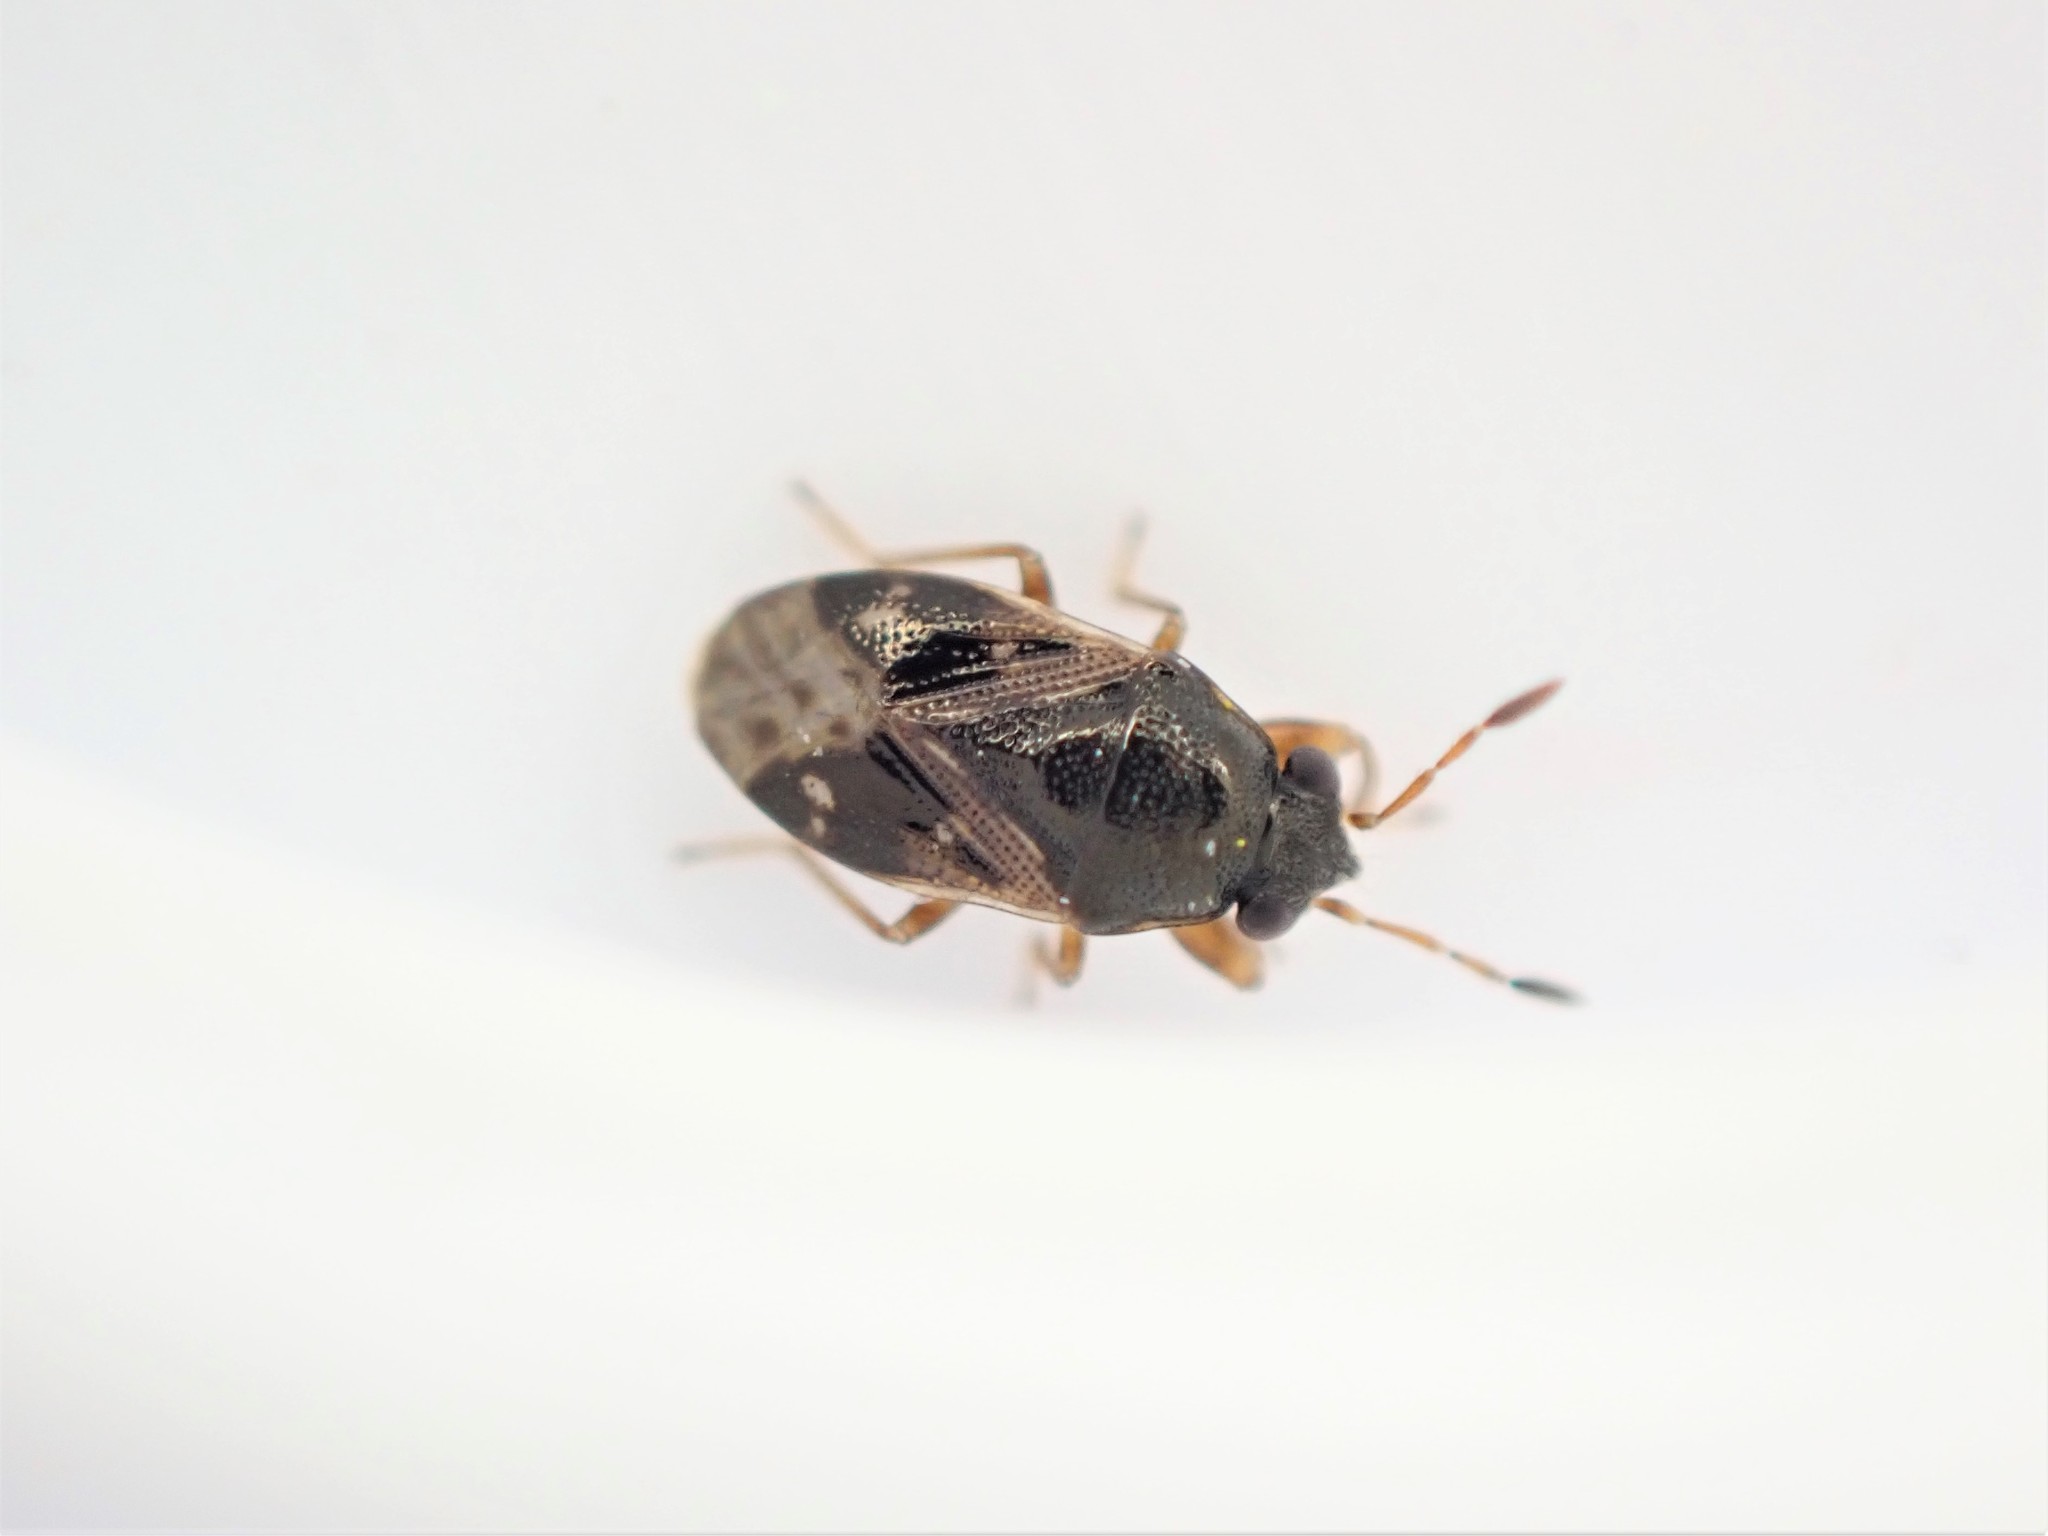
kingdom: Animalia
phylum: Arthropoda
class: Insecta
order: Hemiptera
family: Rhyparochromidae
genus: Stizocephalus
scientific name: Stizocephalus brevirostris
